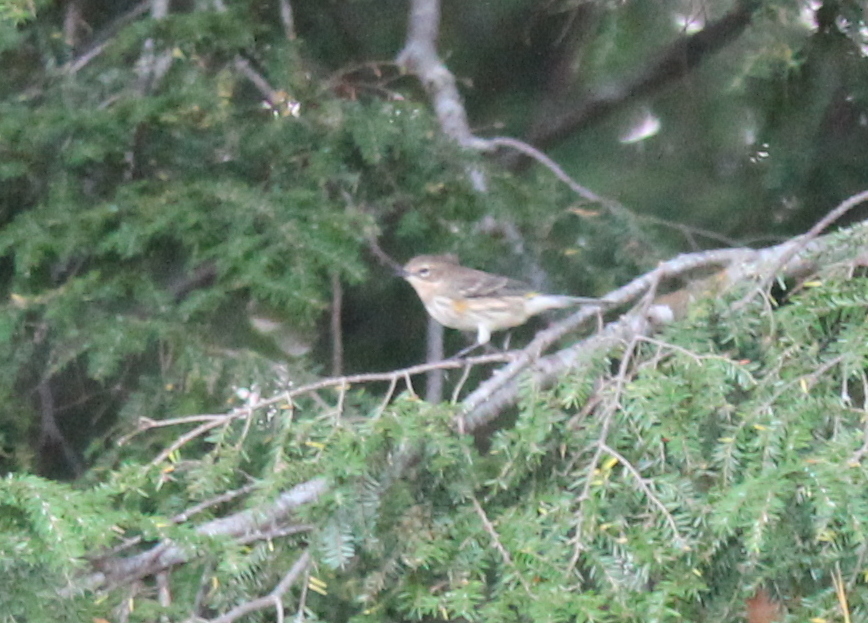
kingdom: Animalia
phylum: Chordata
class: Aves
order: Passeriformes
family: Parulidae
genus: Setophaga
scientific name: Setophaga coronata
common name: Myrtle warbler
